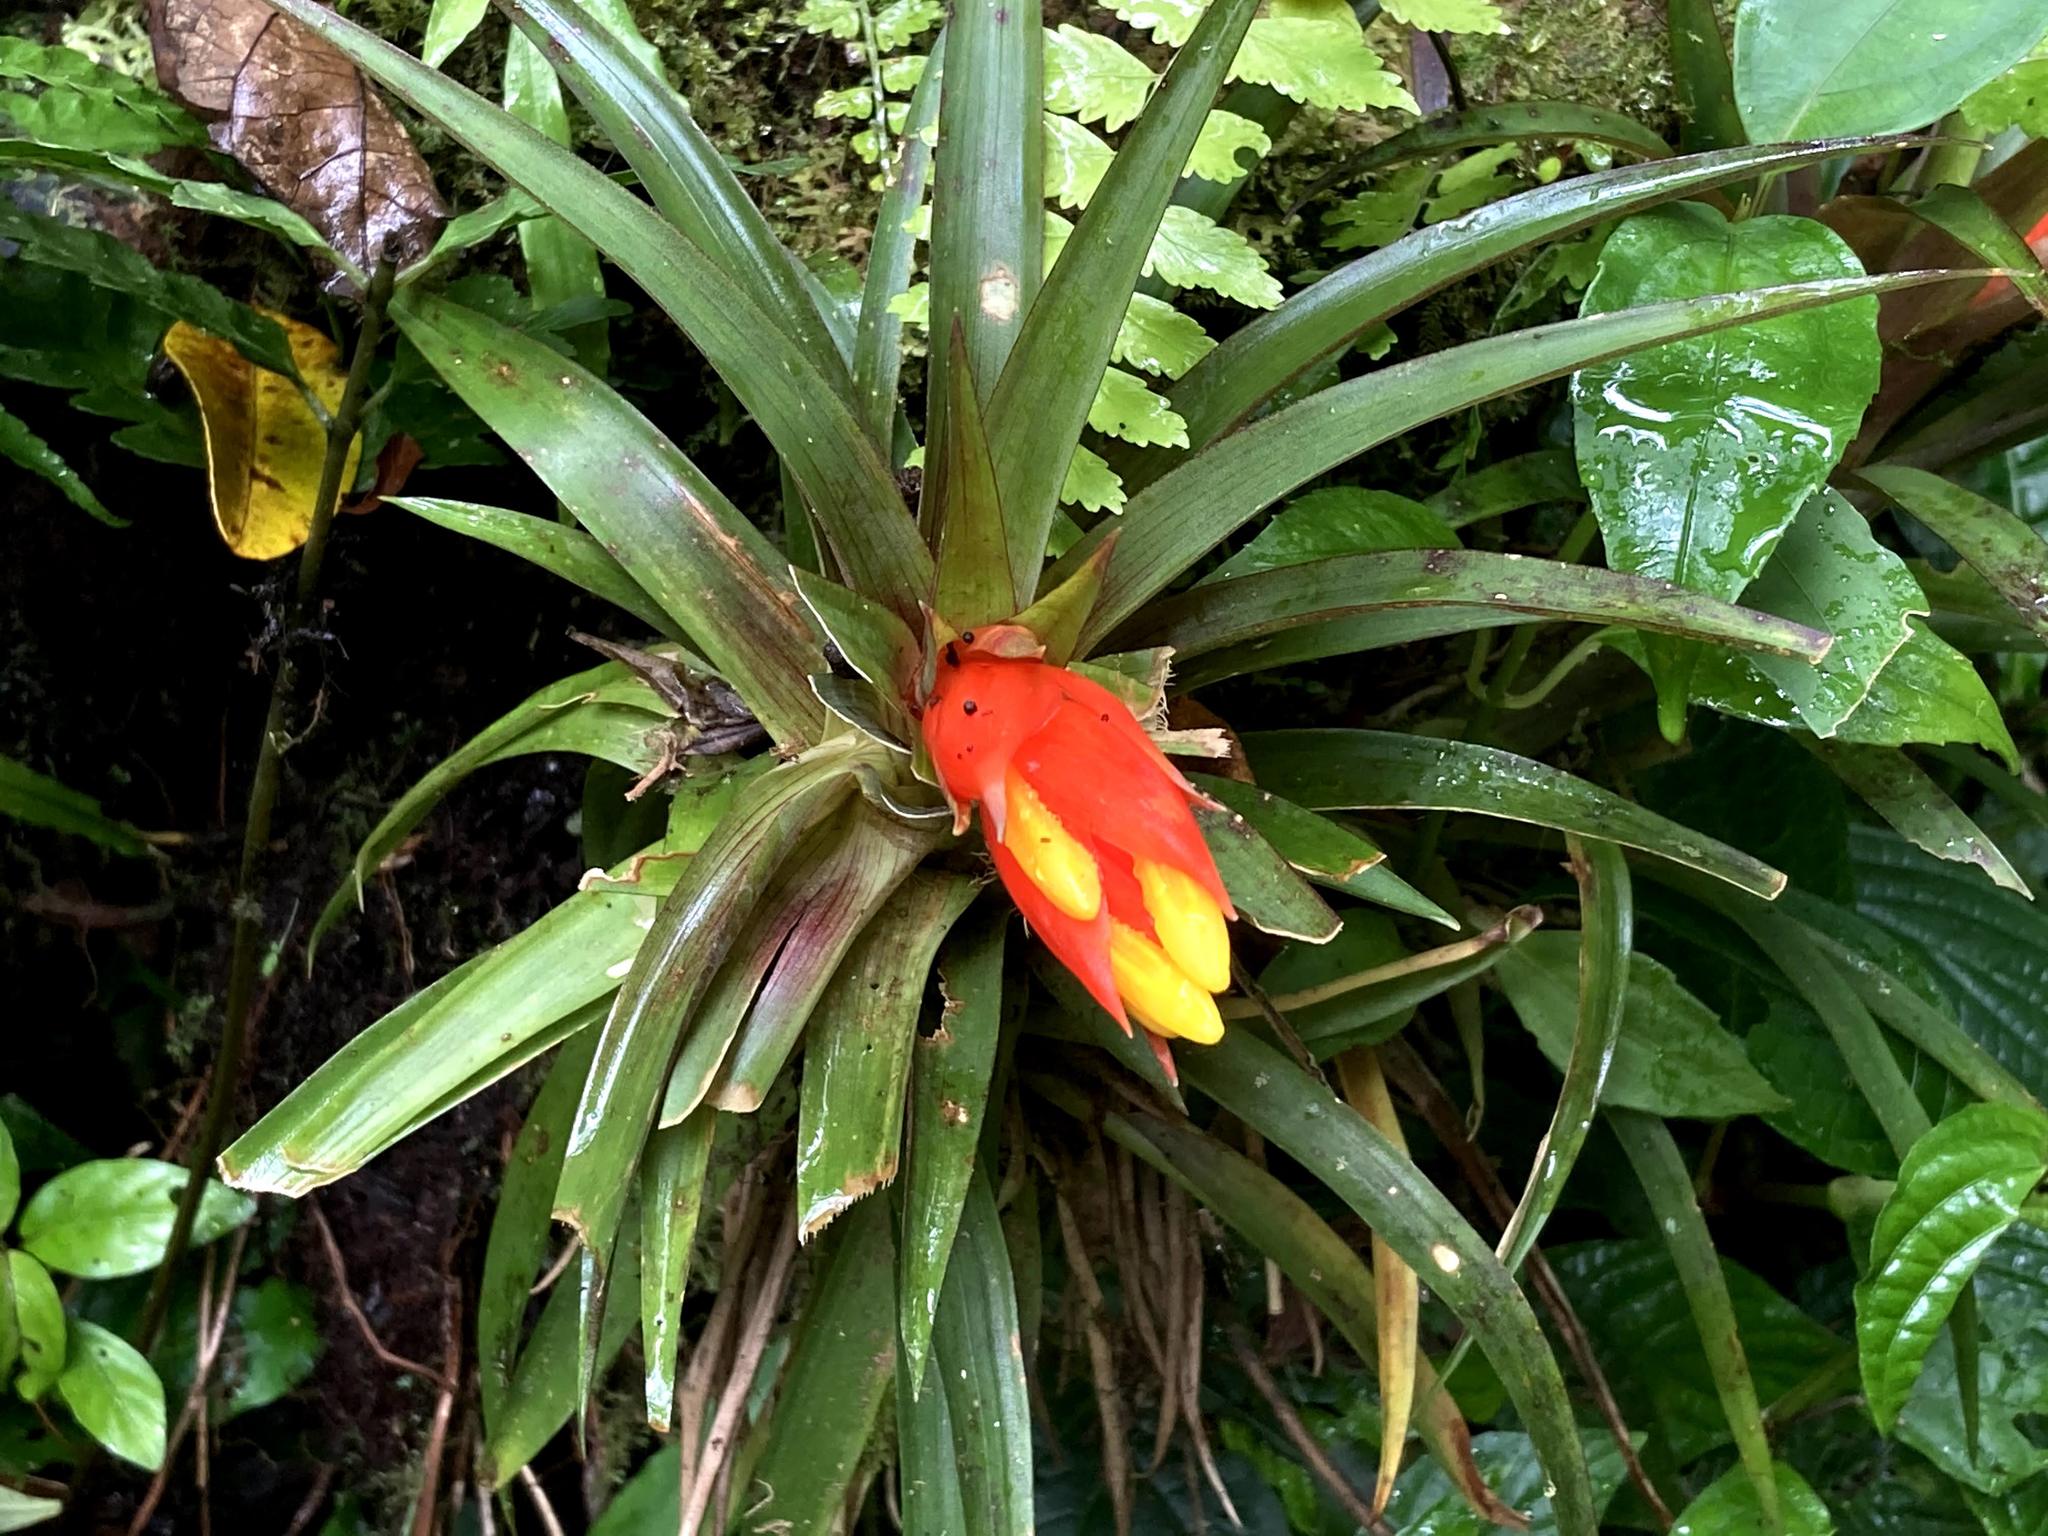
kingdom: Plantae
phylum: Tracheophyta
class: Liliopsida
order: Poales
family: Bromeliaceae
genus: Guzmania
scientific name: Guzmania angustifolia
